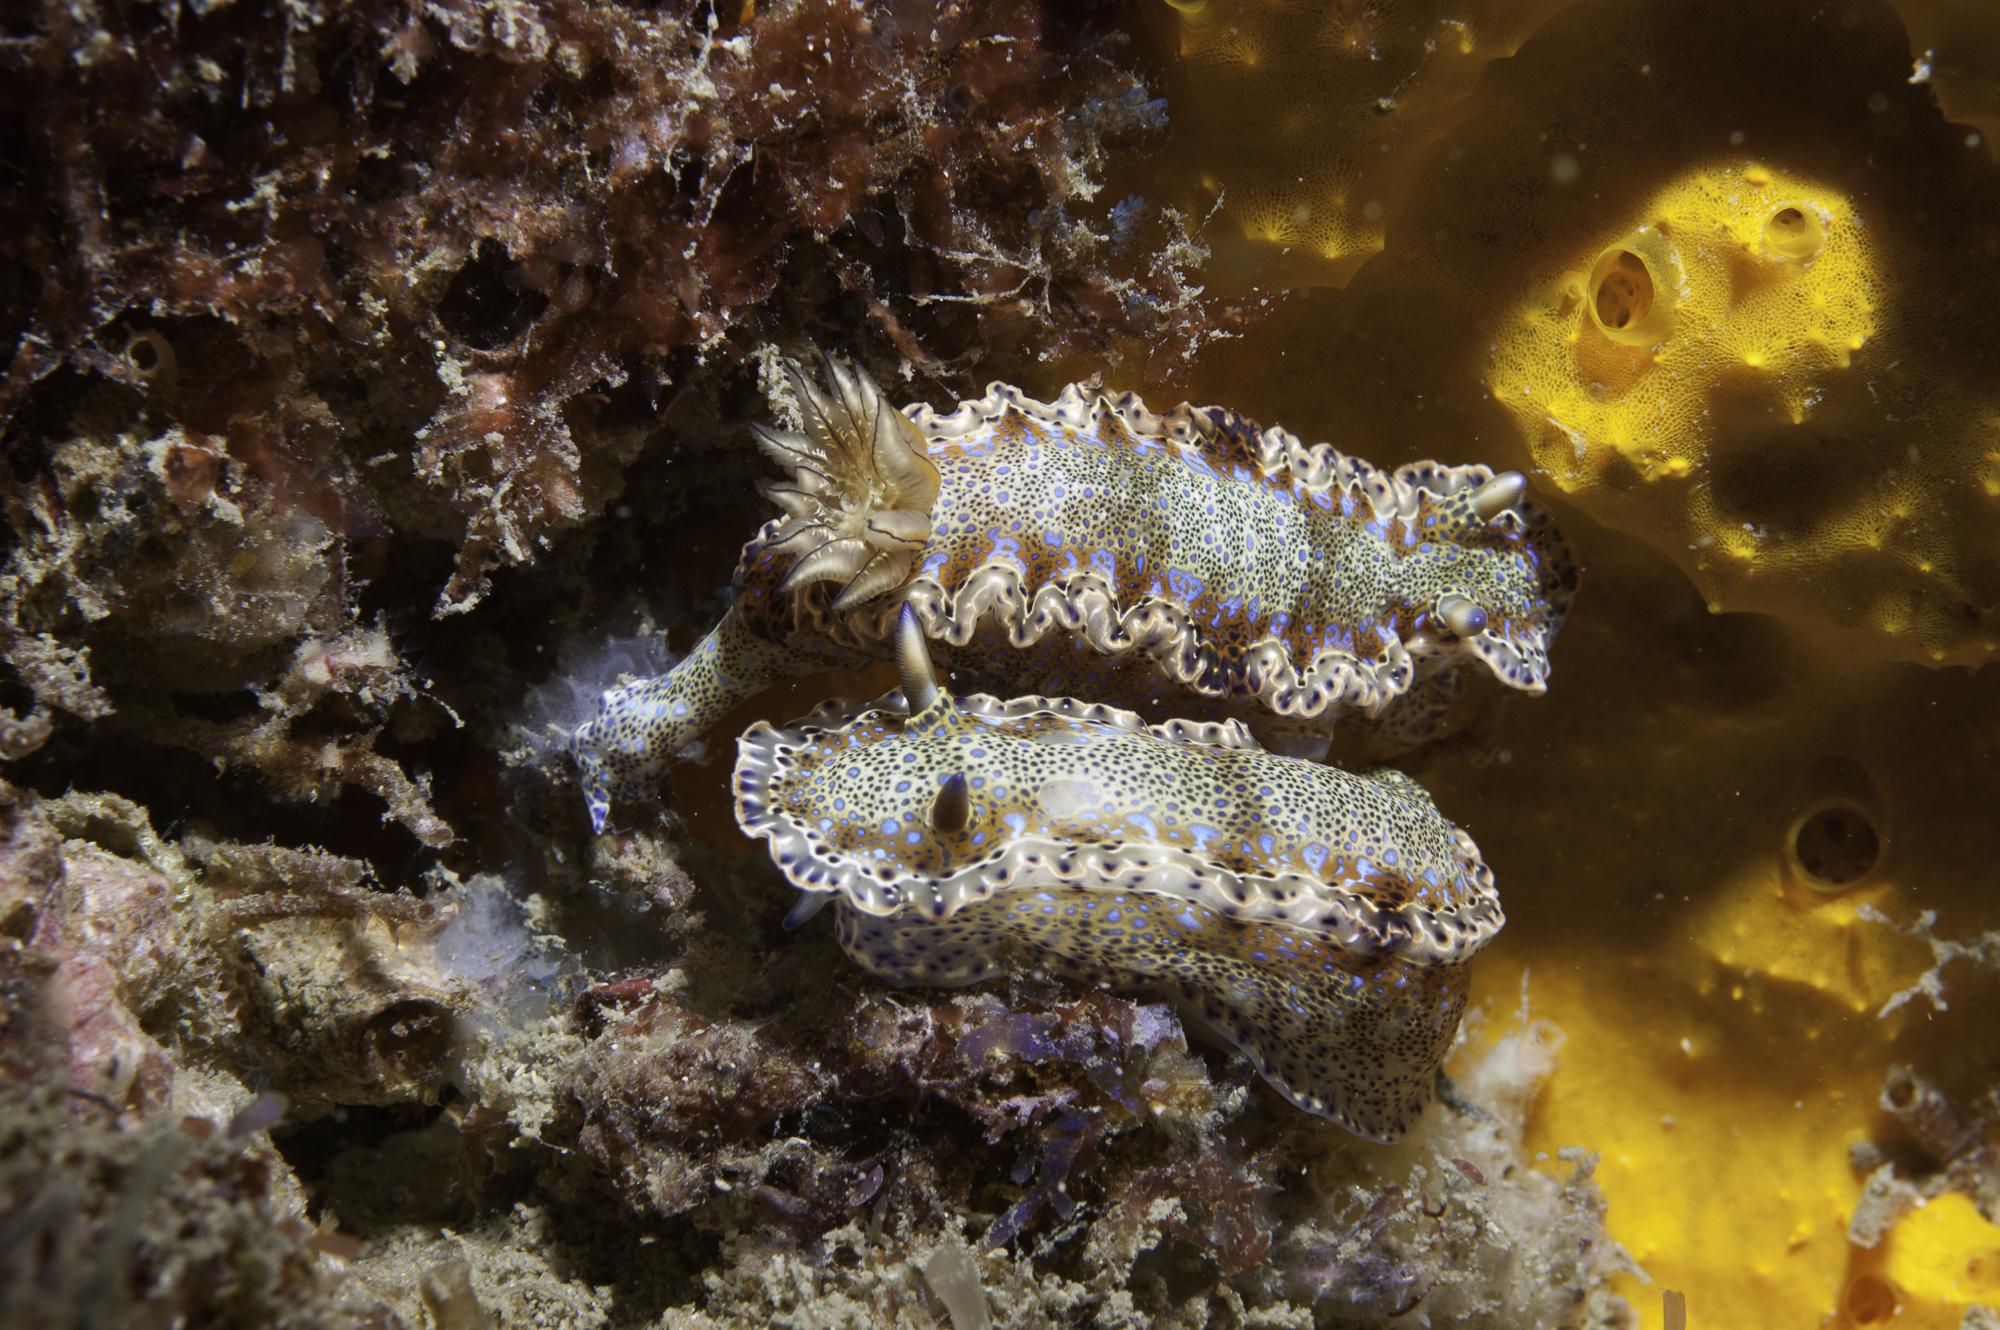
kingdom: Animalia
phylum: Mollusca
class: Gastropoda
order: Nudibranchia
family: Chromodorididae
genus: Felimare
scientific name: Felimare marci
